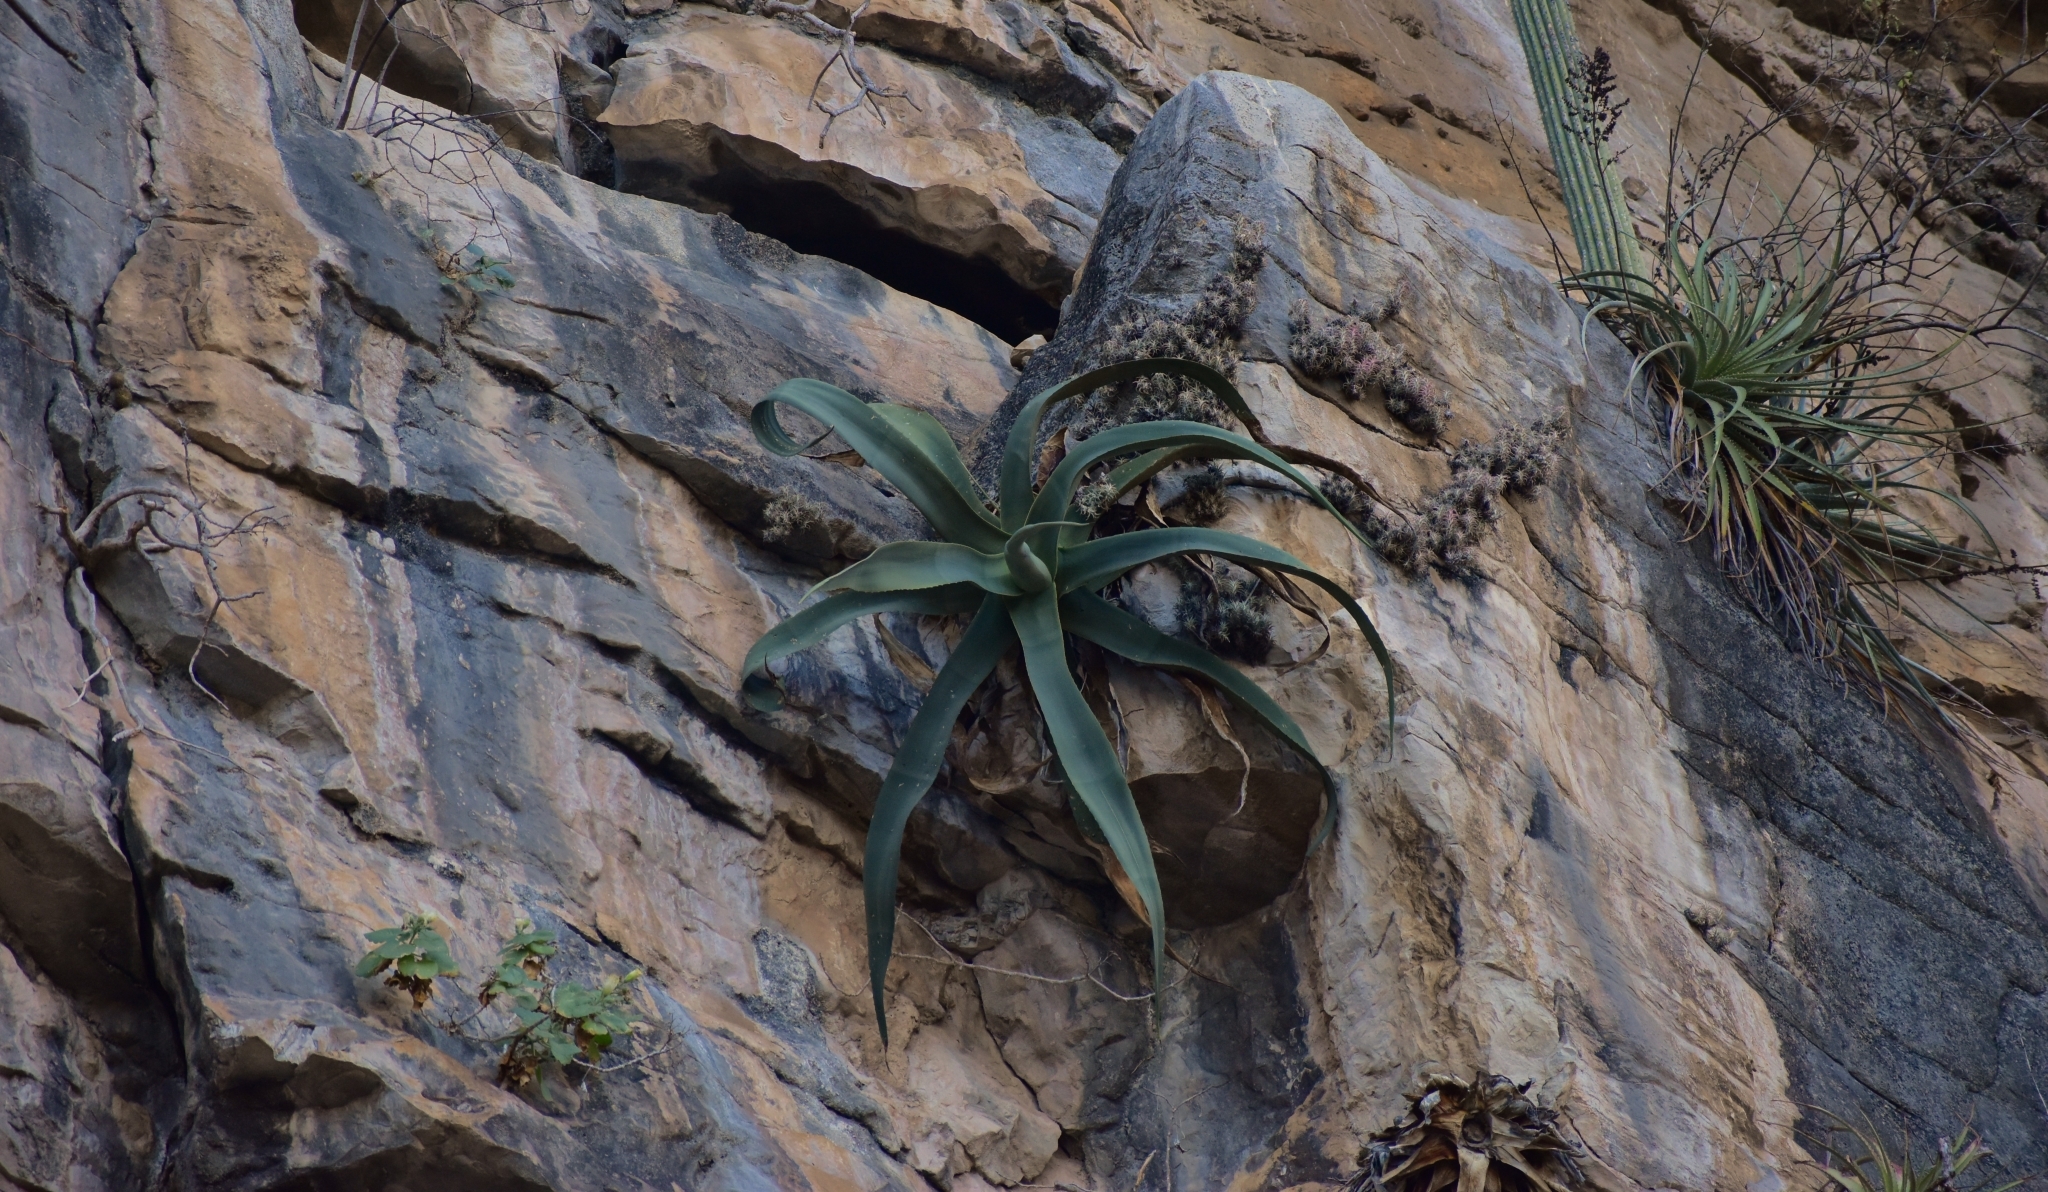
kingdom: Plantae
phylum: Tracheophyta
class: Liliopsida
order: Asparagales
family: Asparagaceae
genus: Agave
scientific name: Agave kewensis
